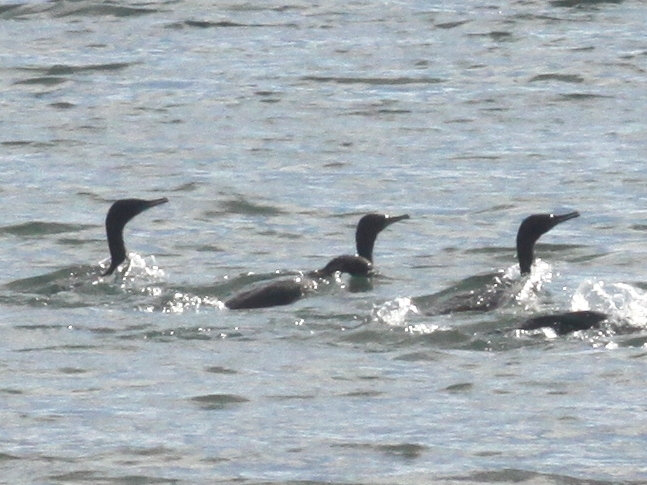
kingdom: Animalia
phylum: Chordata
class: Aves
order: Suliformes
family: Phalacrocoracidae
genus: Phalacrocorax
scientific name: Phalacrocorax sulcirostris
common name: Little black cormorant
